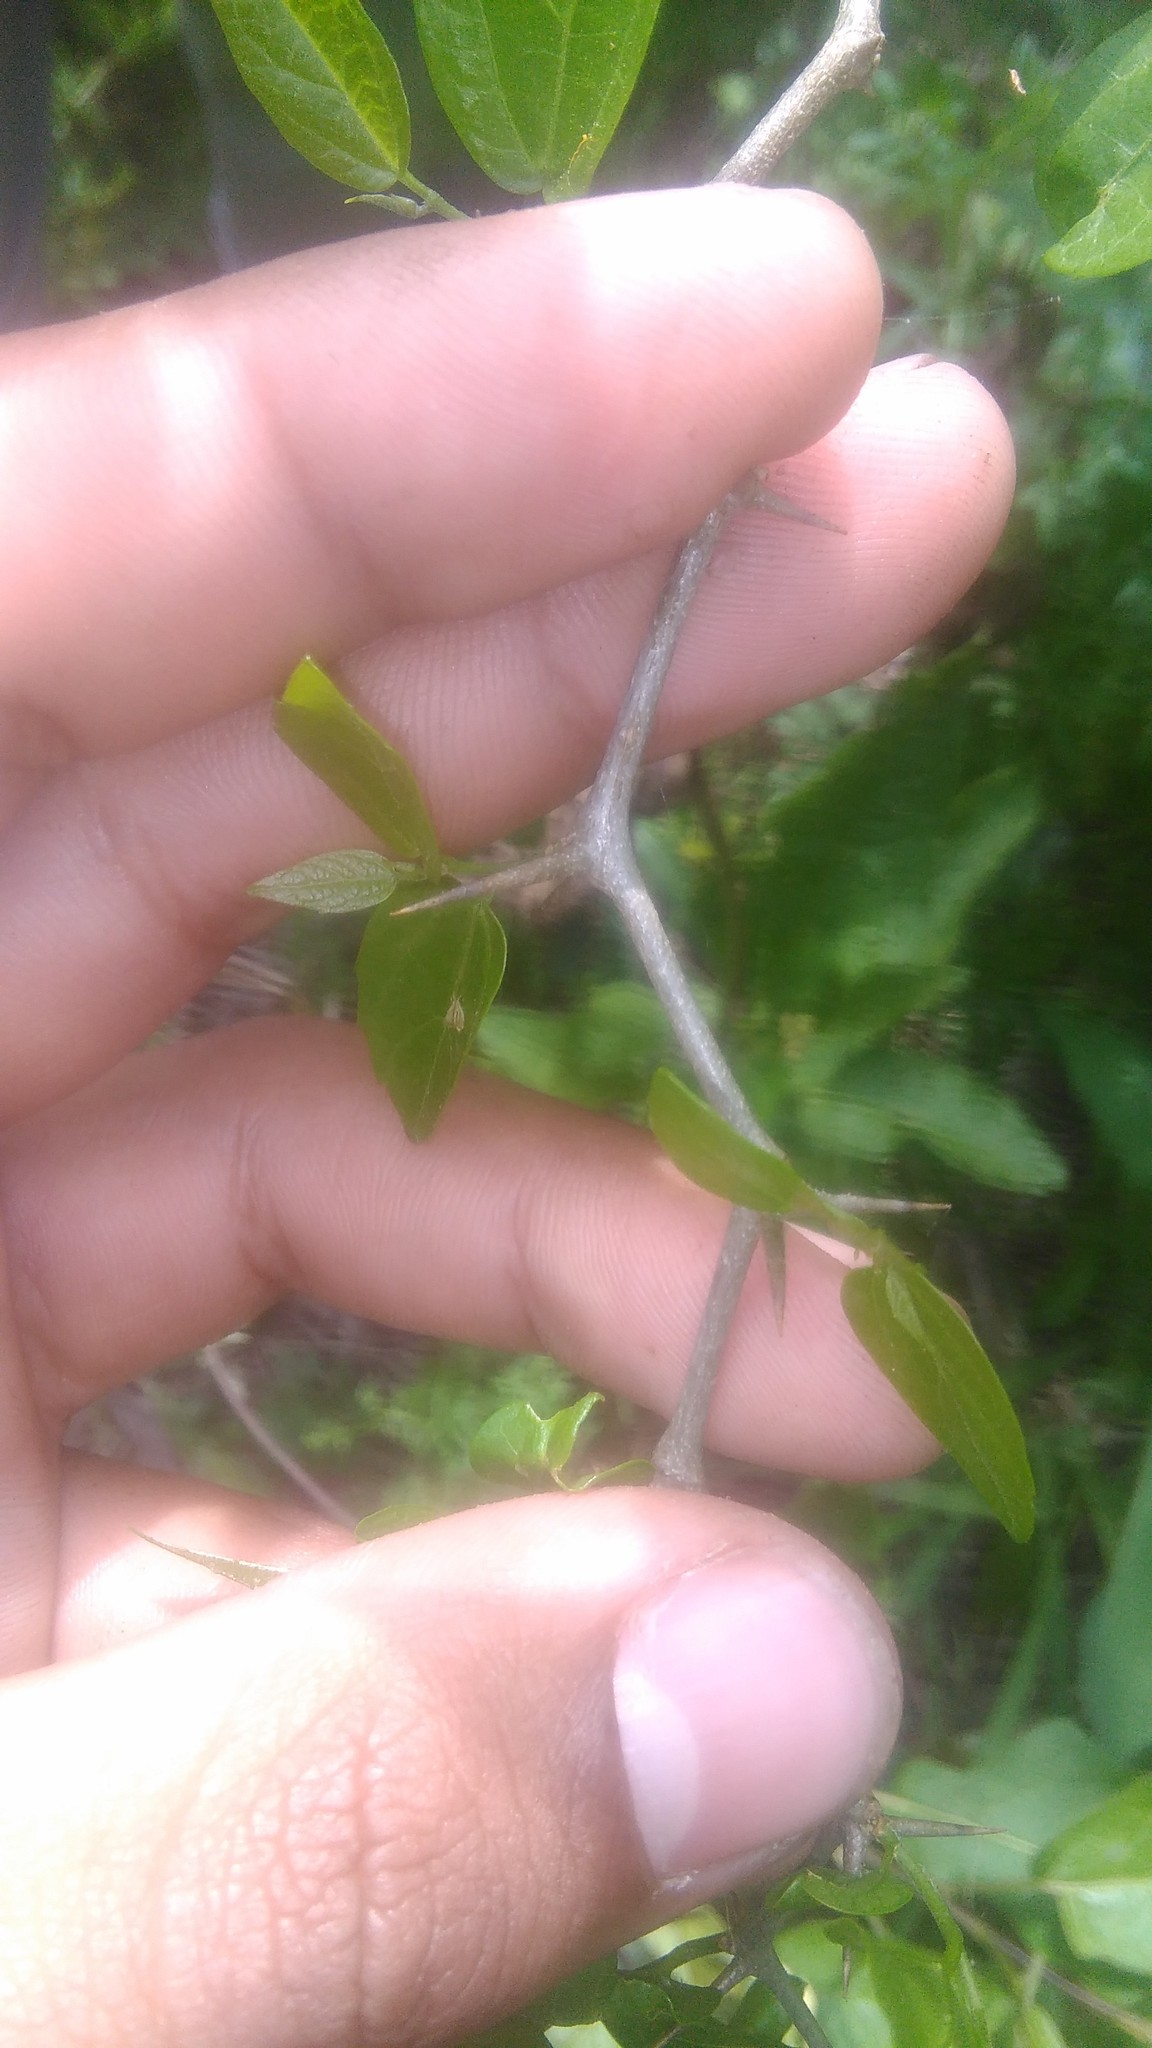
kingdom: Plantae
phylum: Tracheophyta
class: Magnoliopsida
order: Rosales
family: Cannabaceae
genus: Celtis
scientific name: Celtis tala
